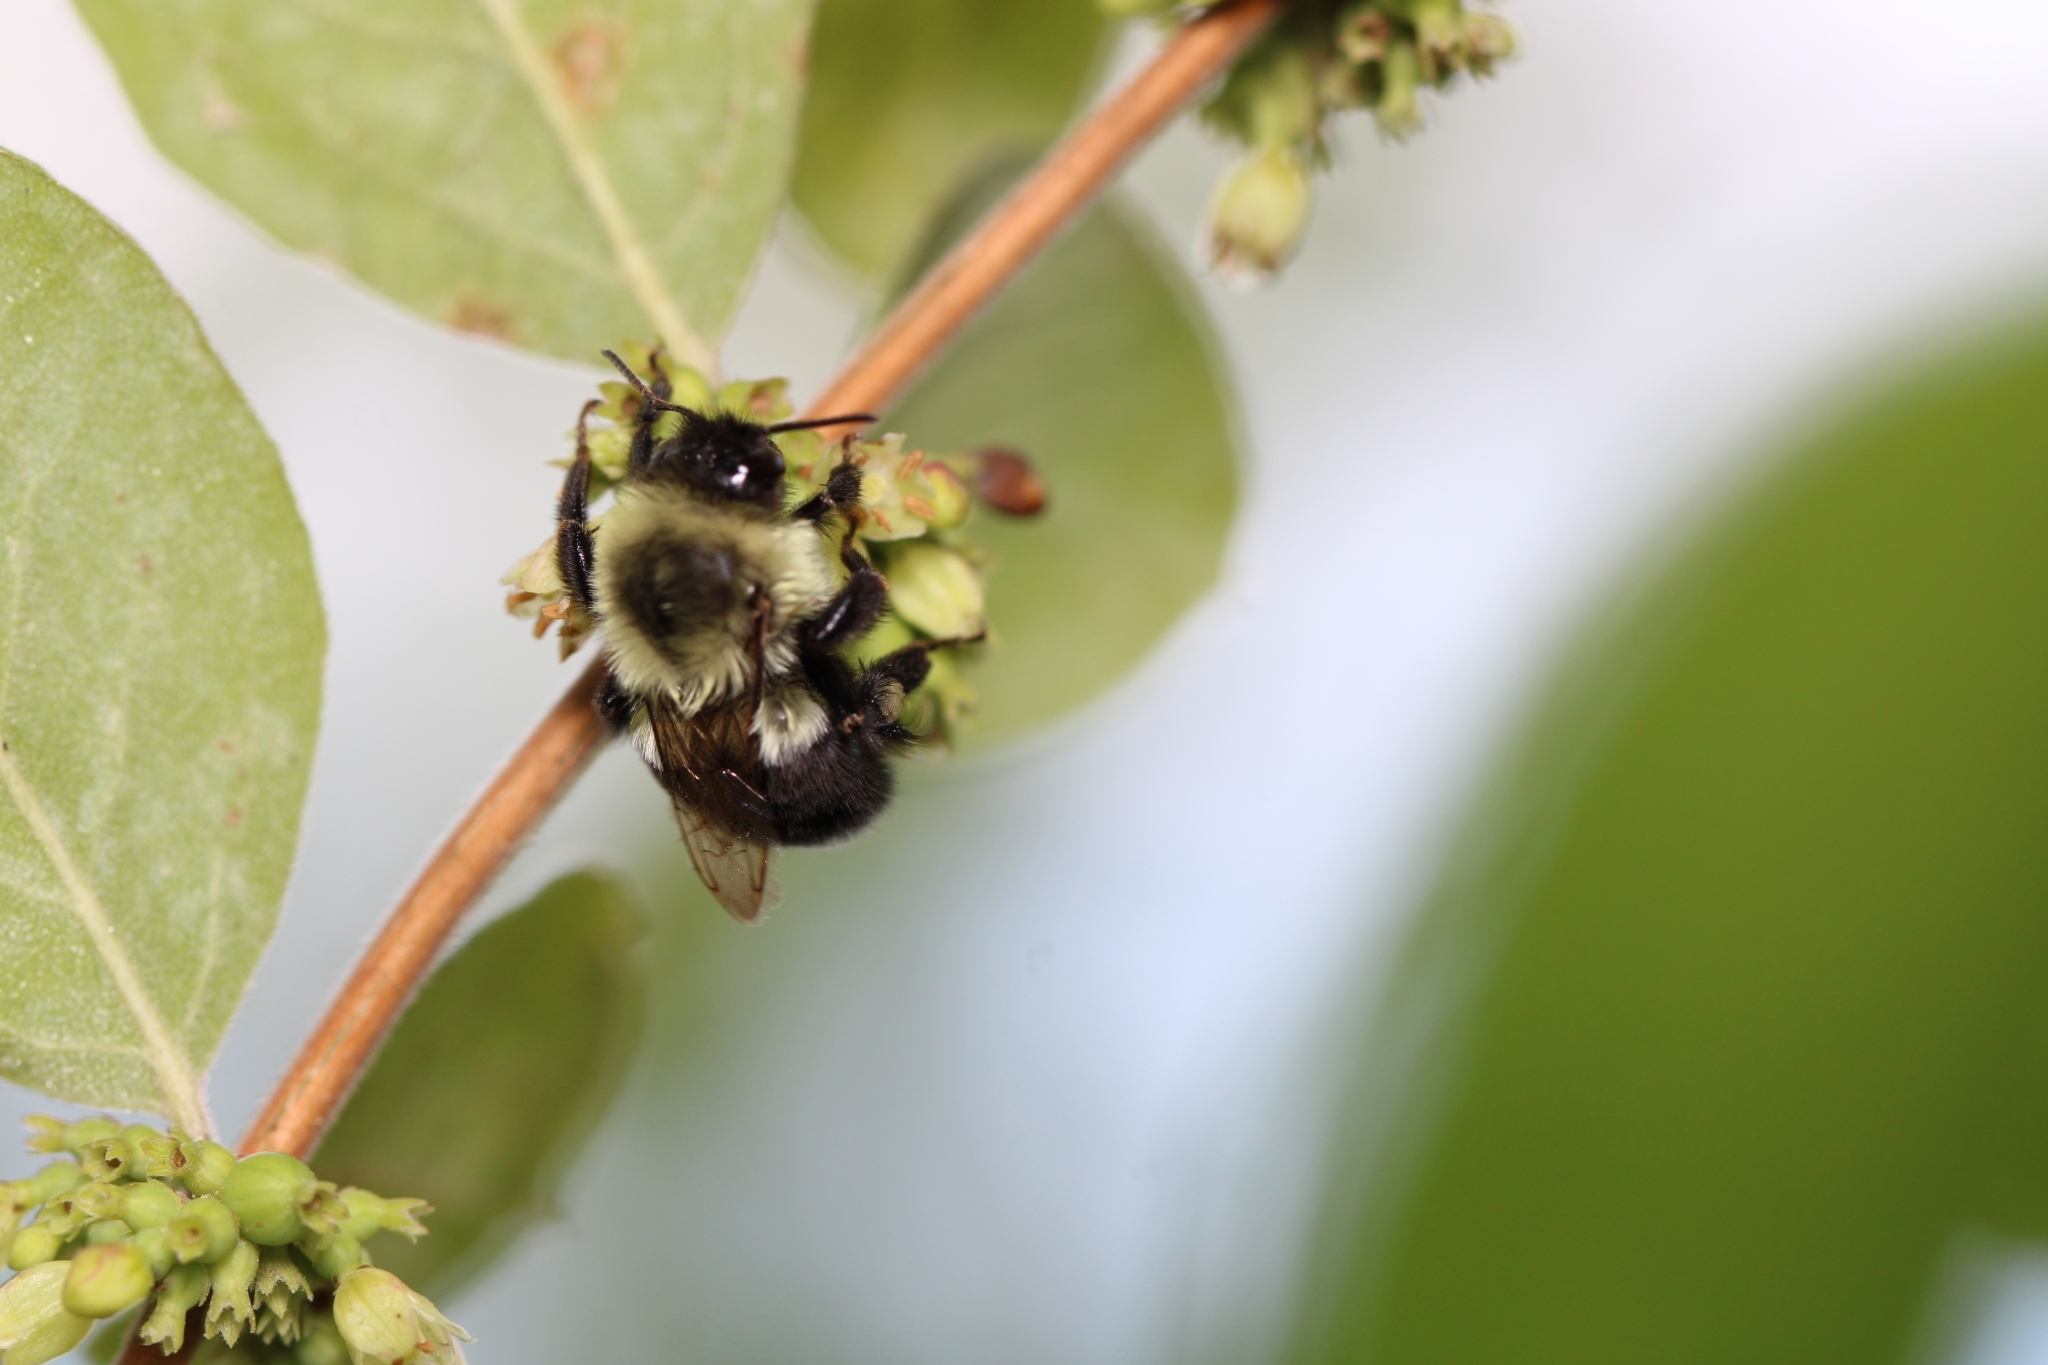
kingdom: Animalia
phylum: Arthropoda
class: Insecta
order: Hymenoptera
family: Apidae
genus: Bombus
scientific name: Bombus impatiens
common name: Common eastern bumble bee
